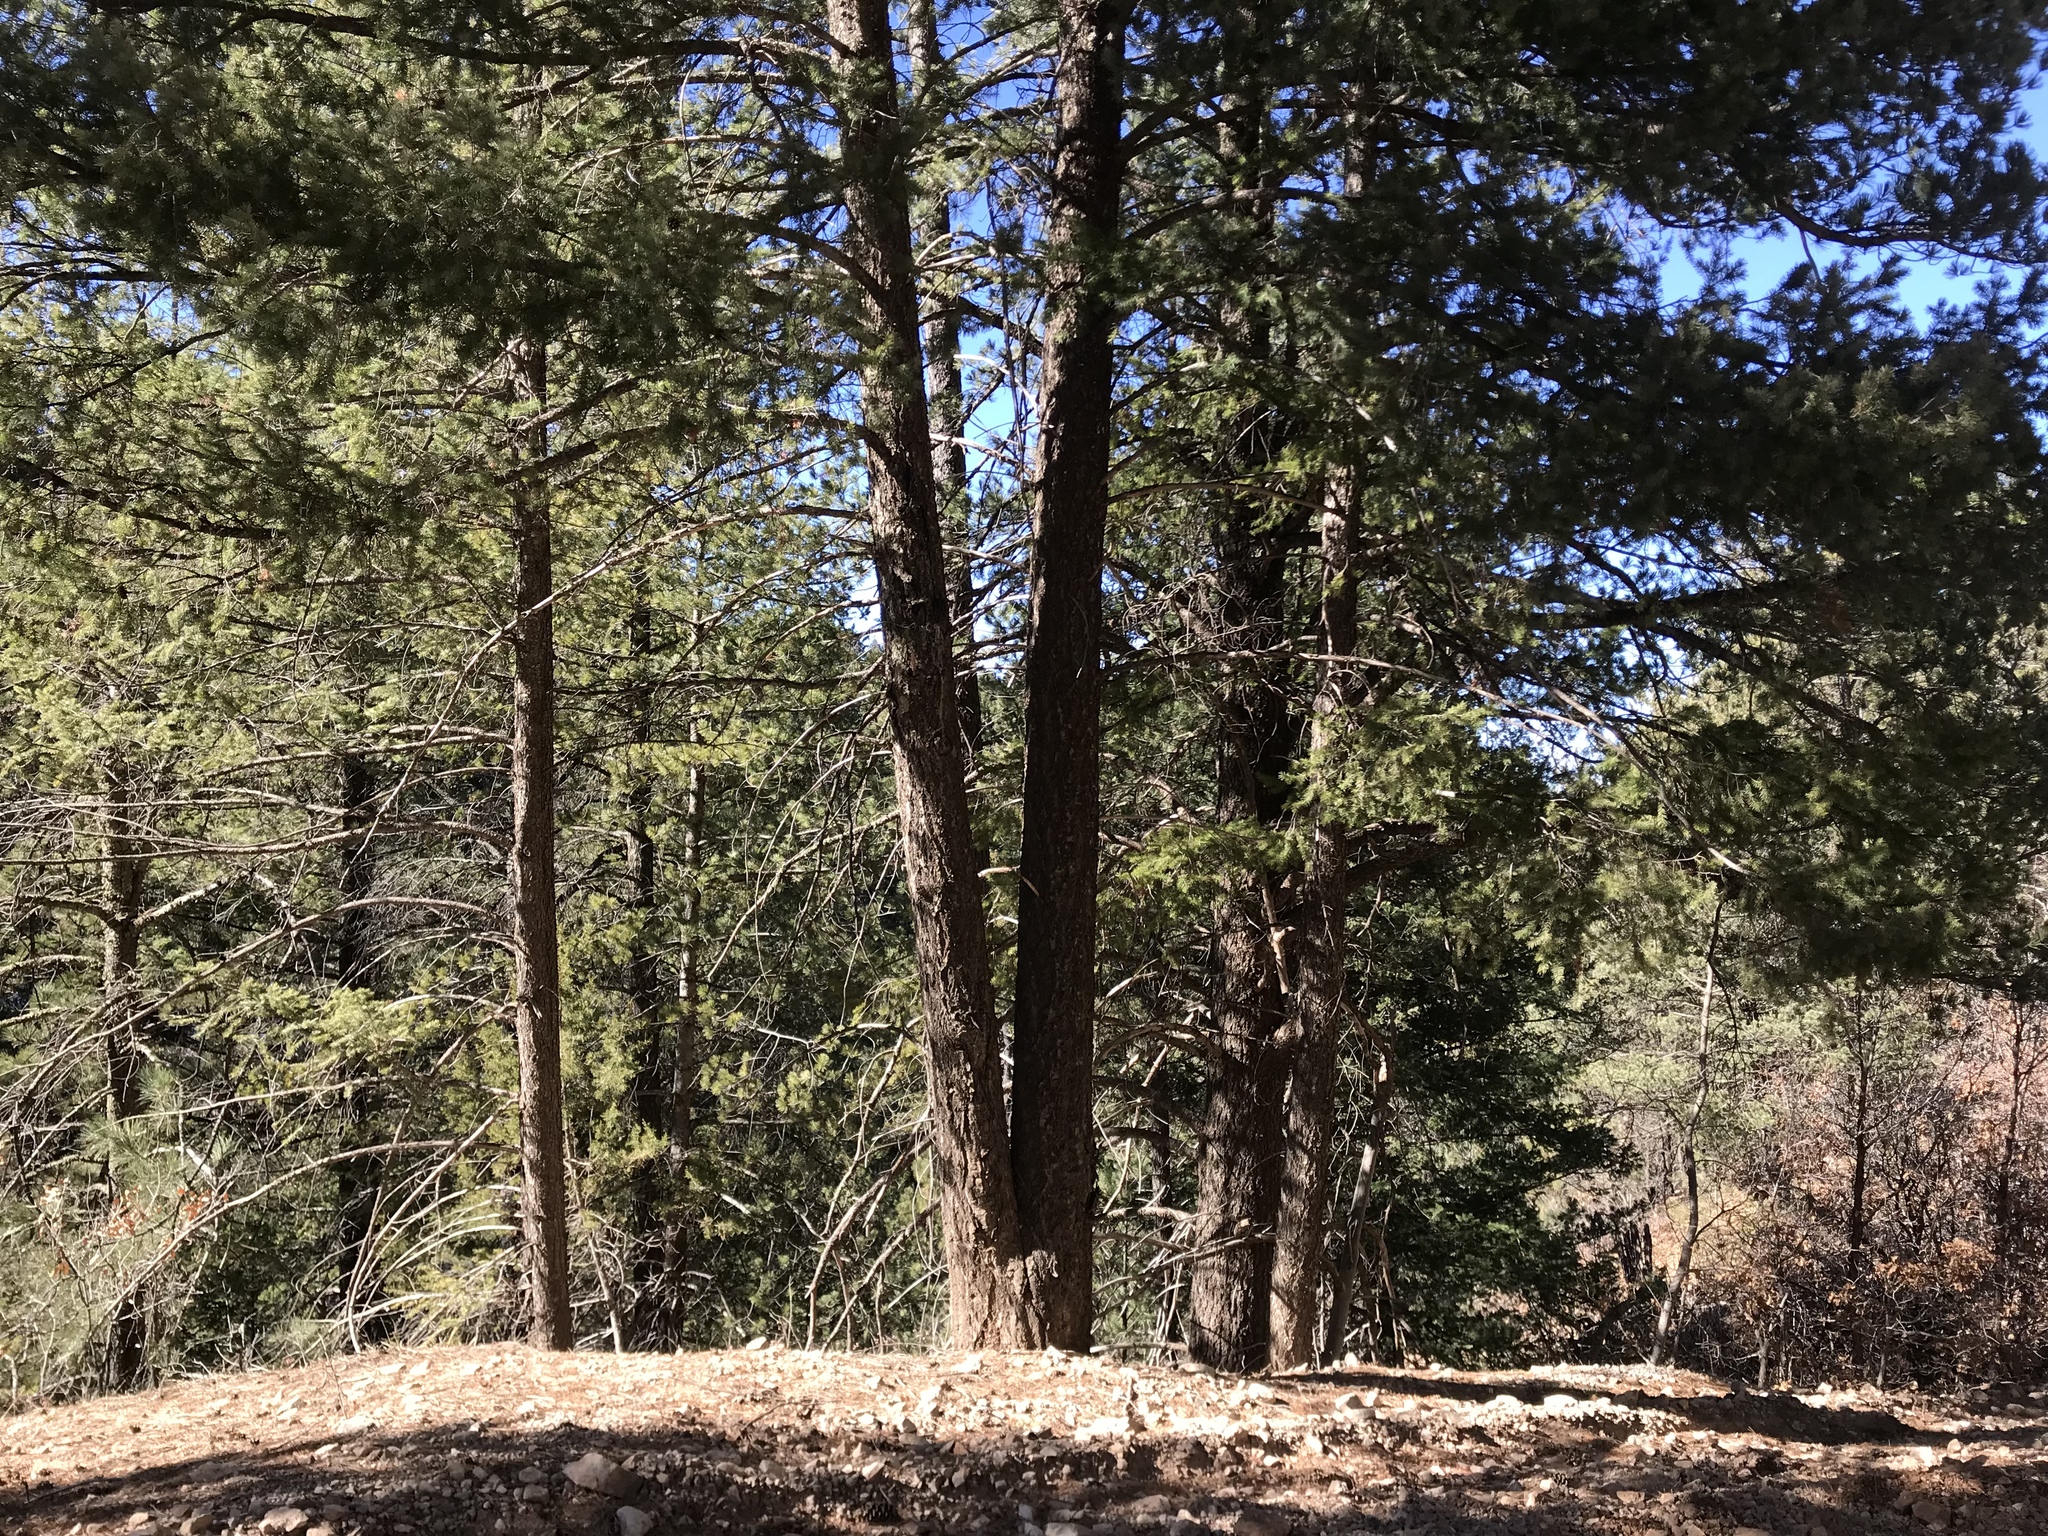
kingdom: Plantae
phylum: Tracheophyta
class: Pinopsida
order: Pinales
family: Pinaceae
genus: Pinus
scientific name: Pinus strobiformis
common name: Southwestern white pine
